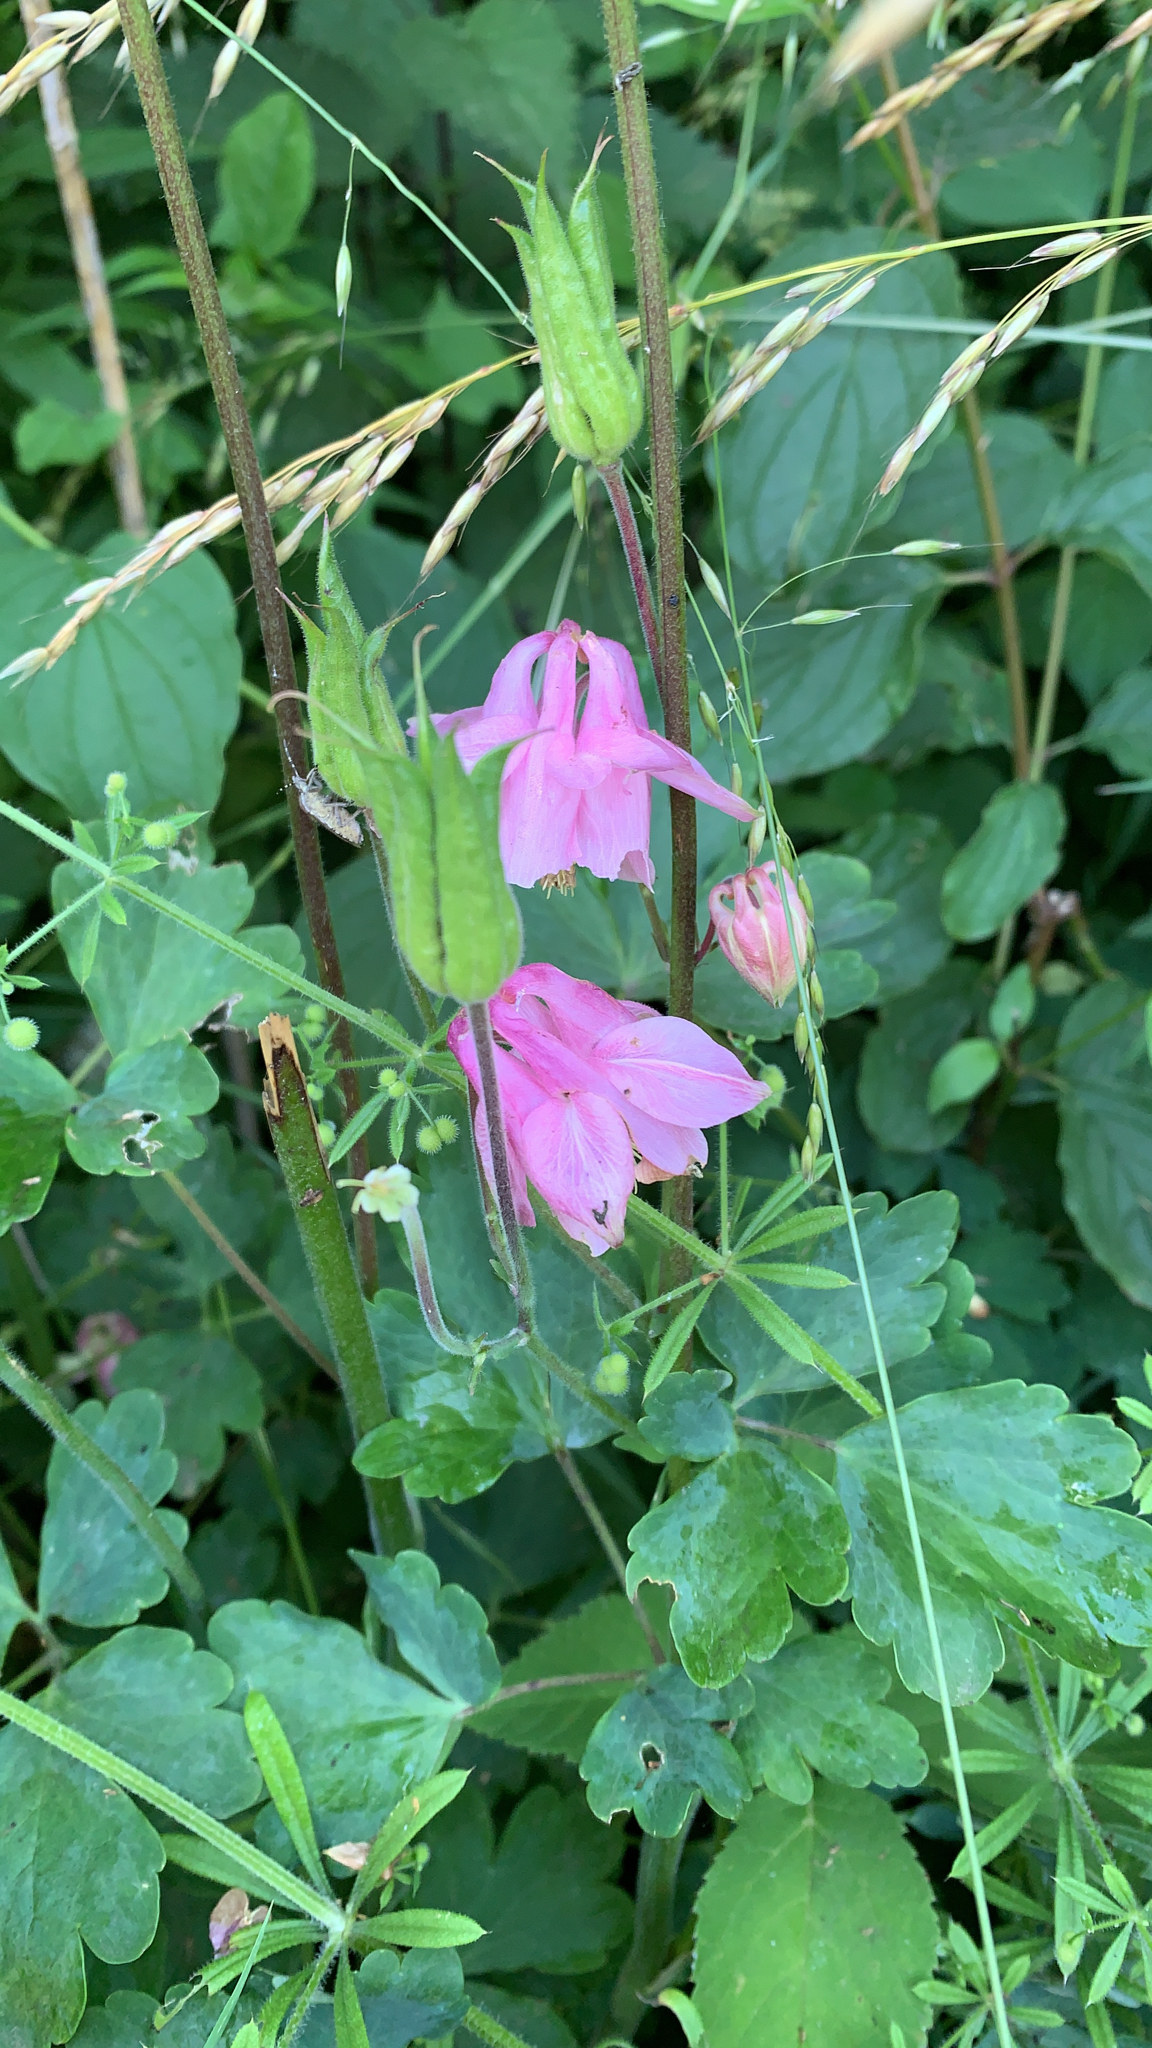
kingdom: Plantae
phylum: Tracheophyta
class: Magnoliopsida
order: Ranunculales
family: Ranunculaceae
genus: Aquilegia
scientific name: Aquilegia vulgaris
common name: Columbine
